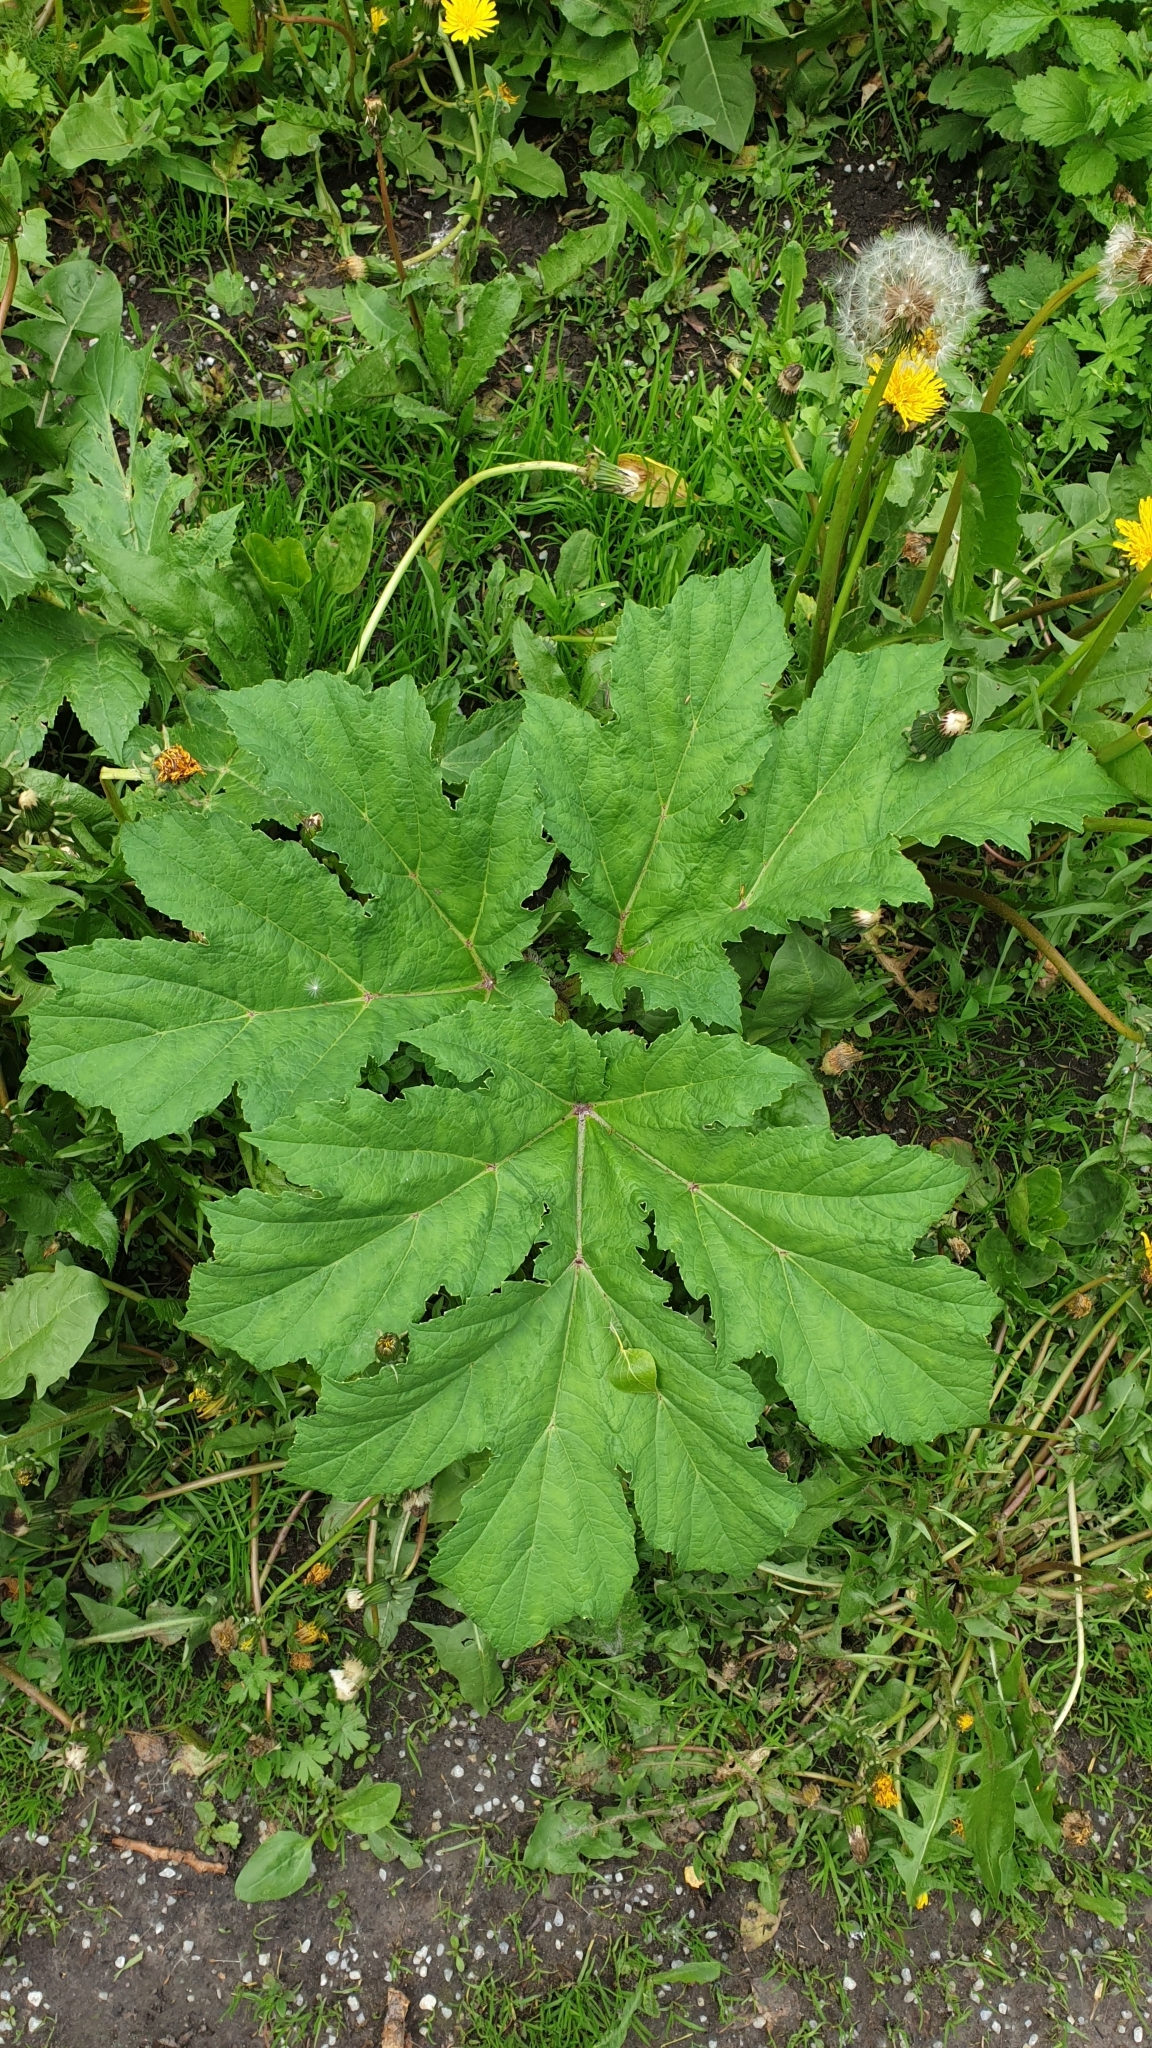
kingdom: Plantae
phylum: Tracheophyta
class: Magnoliopsida
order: Apiales
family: Apiaceae
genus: Heracleum
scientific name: Heracleum sosnowskyi
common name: Sosnowsky's hogweed
